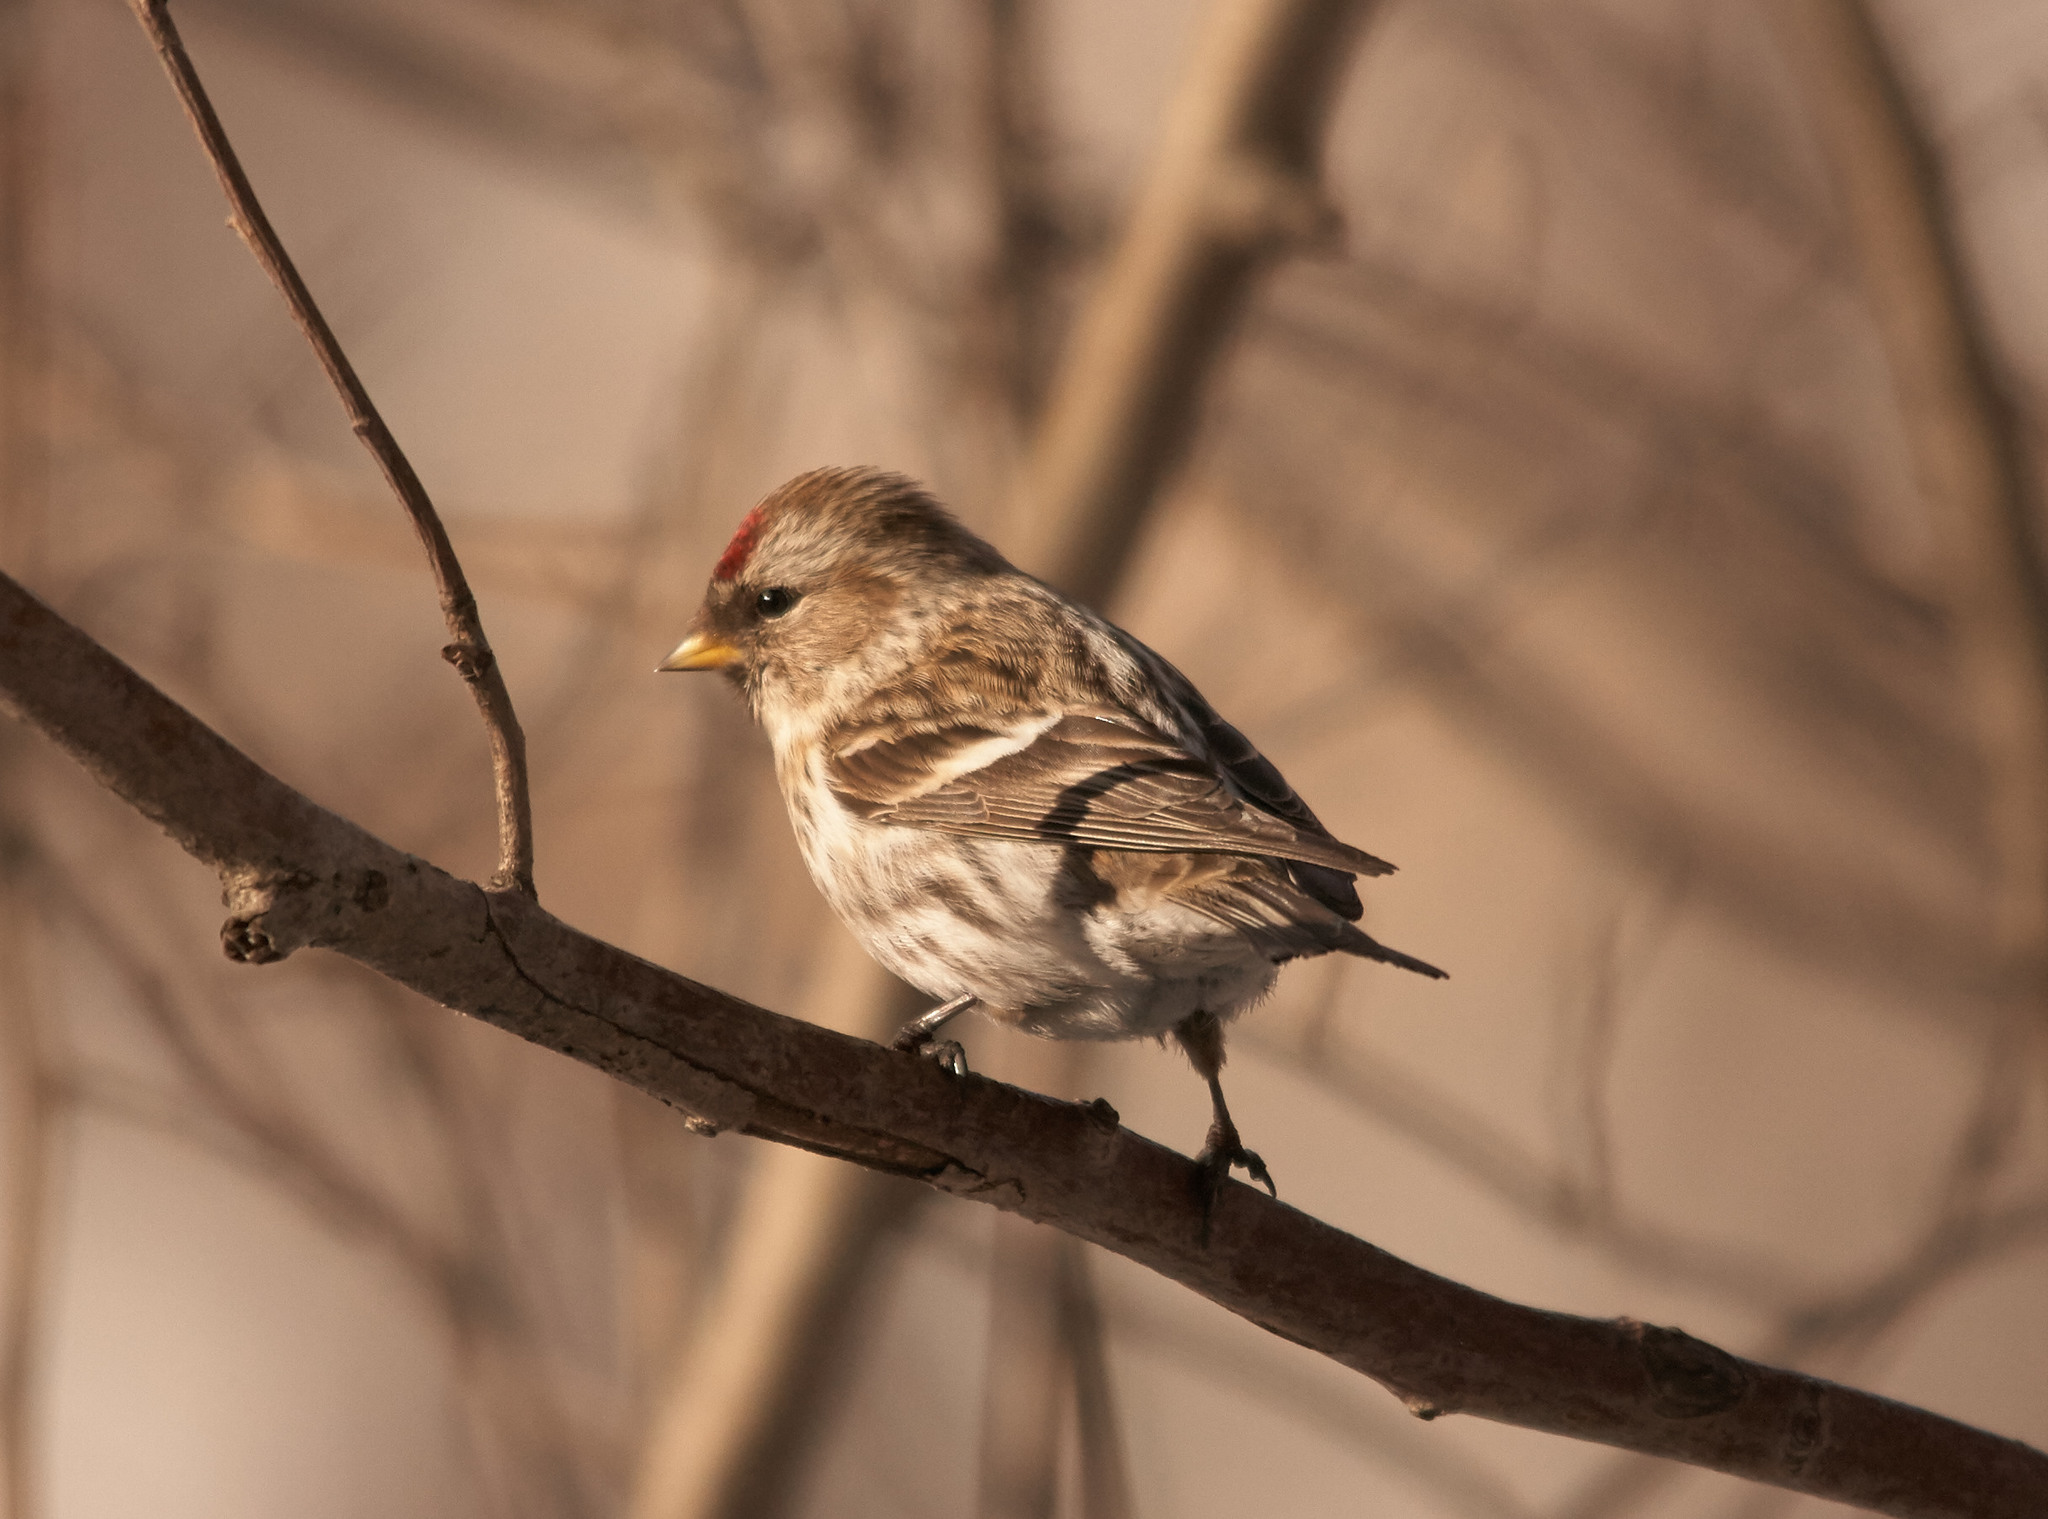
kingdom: Animalia
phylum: Chordata
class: Aves
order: Passeriformes
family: Fringillidae
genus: Acanthis
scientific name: Acanthis flammea
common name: Common redpoll
